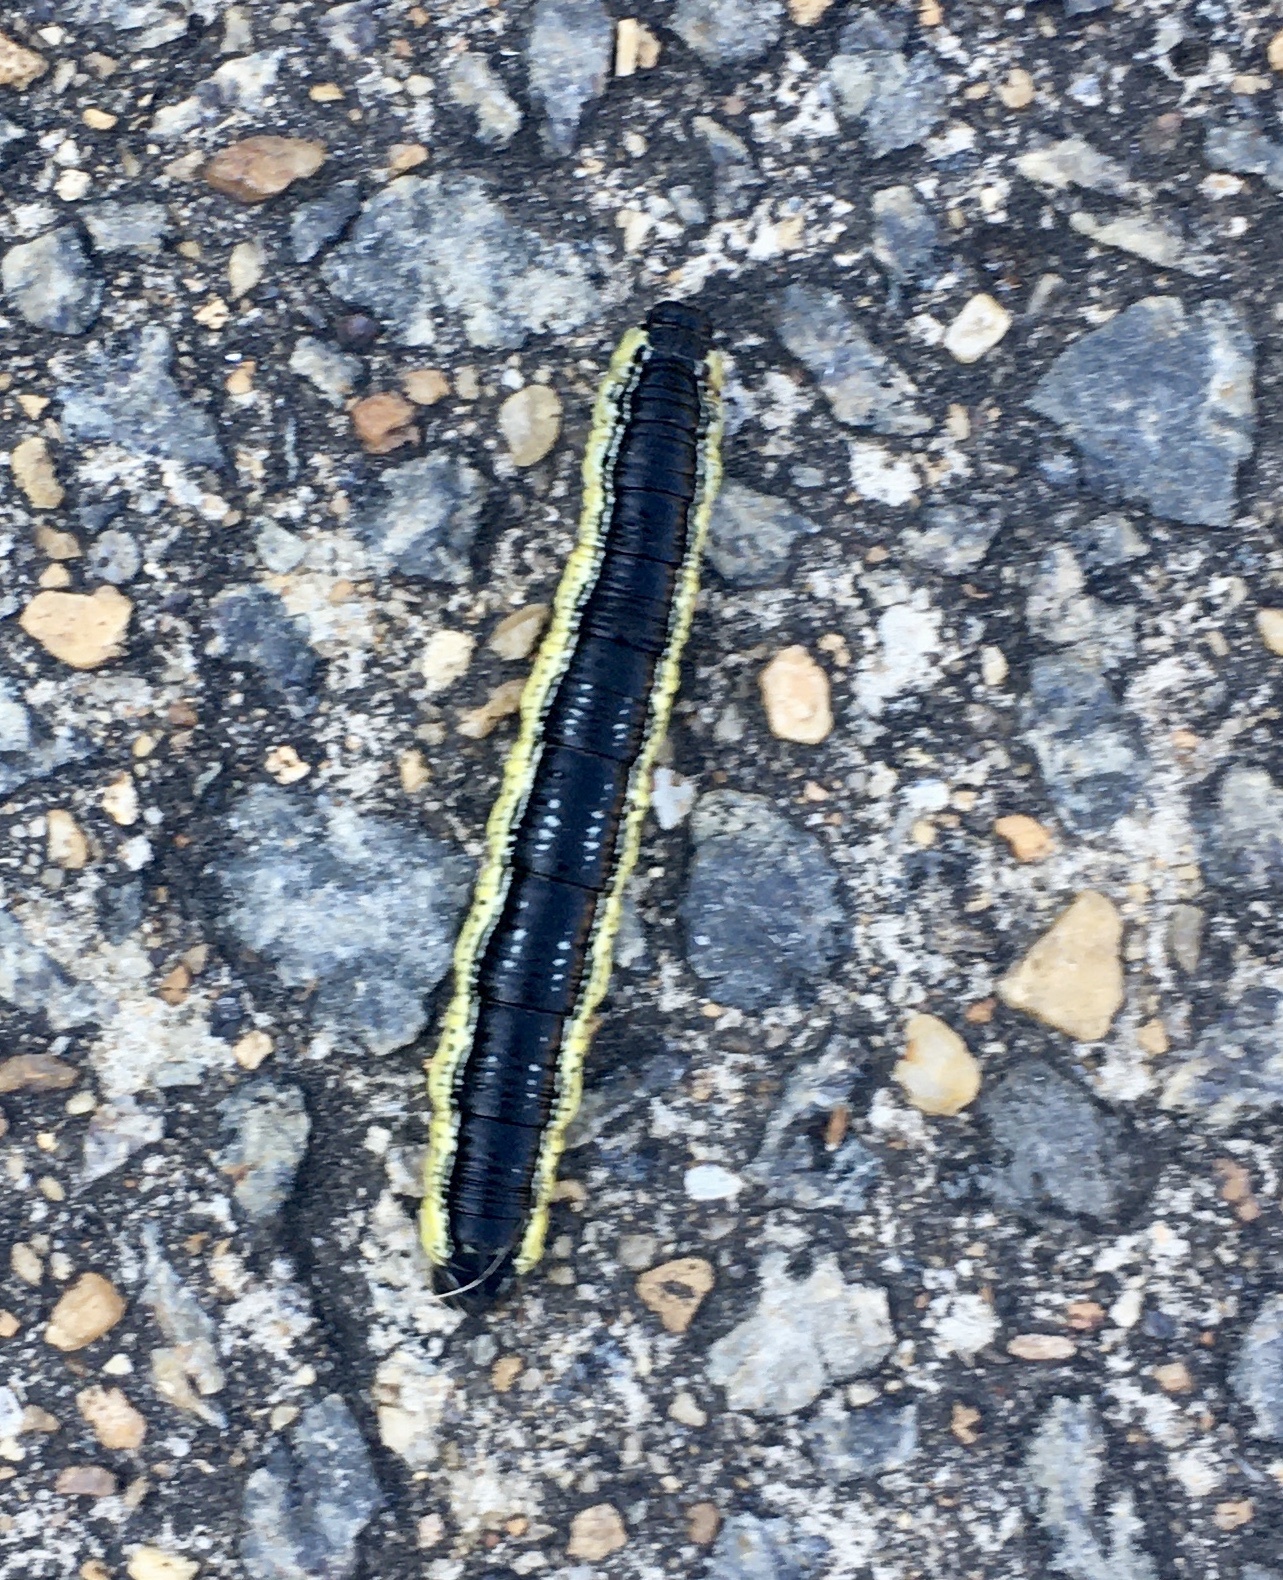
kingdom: Animalia
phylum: Arthropoda
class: Insecta
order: Lepidoptera
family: Sphingidae
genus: Ceratomia
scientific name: Ceratomia catalpae
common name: Catalpa hornworm
